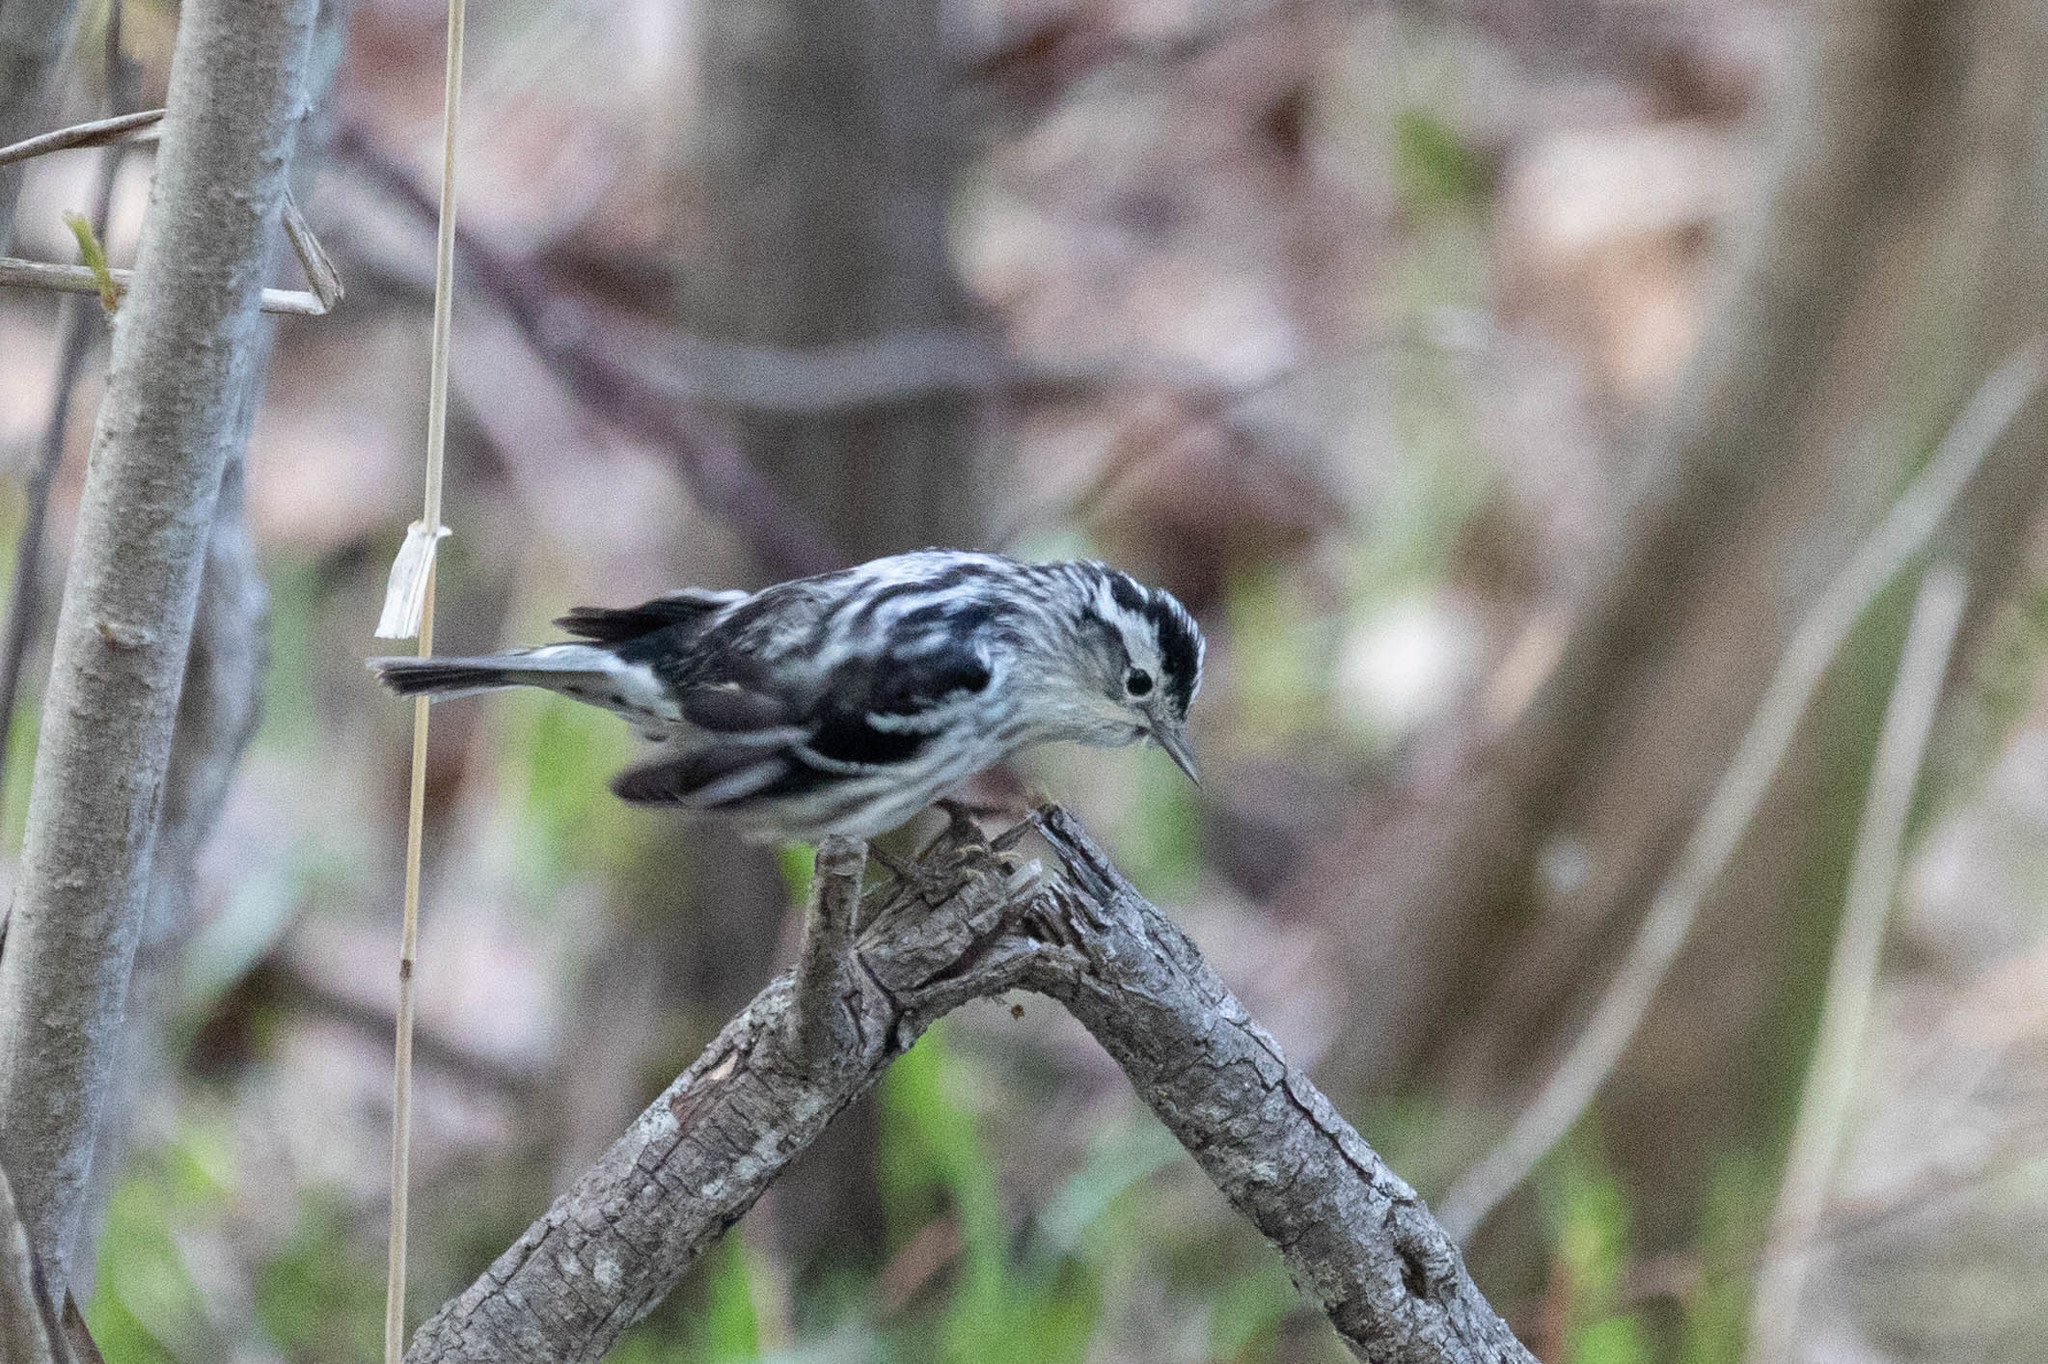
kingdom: Animalia
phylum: Chordata
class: Aves
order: Passeriformes
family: Parulidae
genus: Mniotilta
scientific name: Mniotilta varia
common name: Black-and-white warbler
